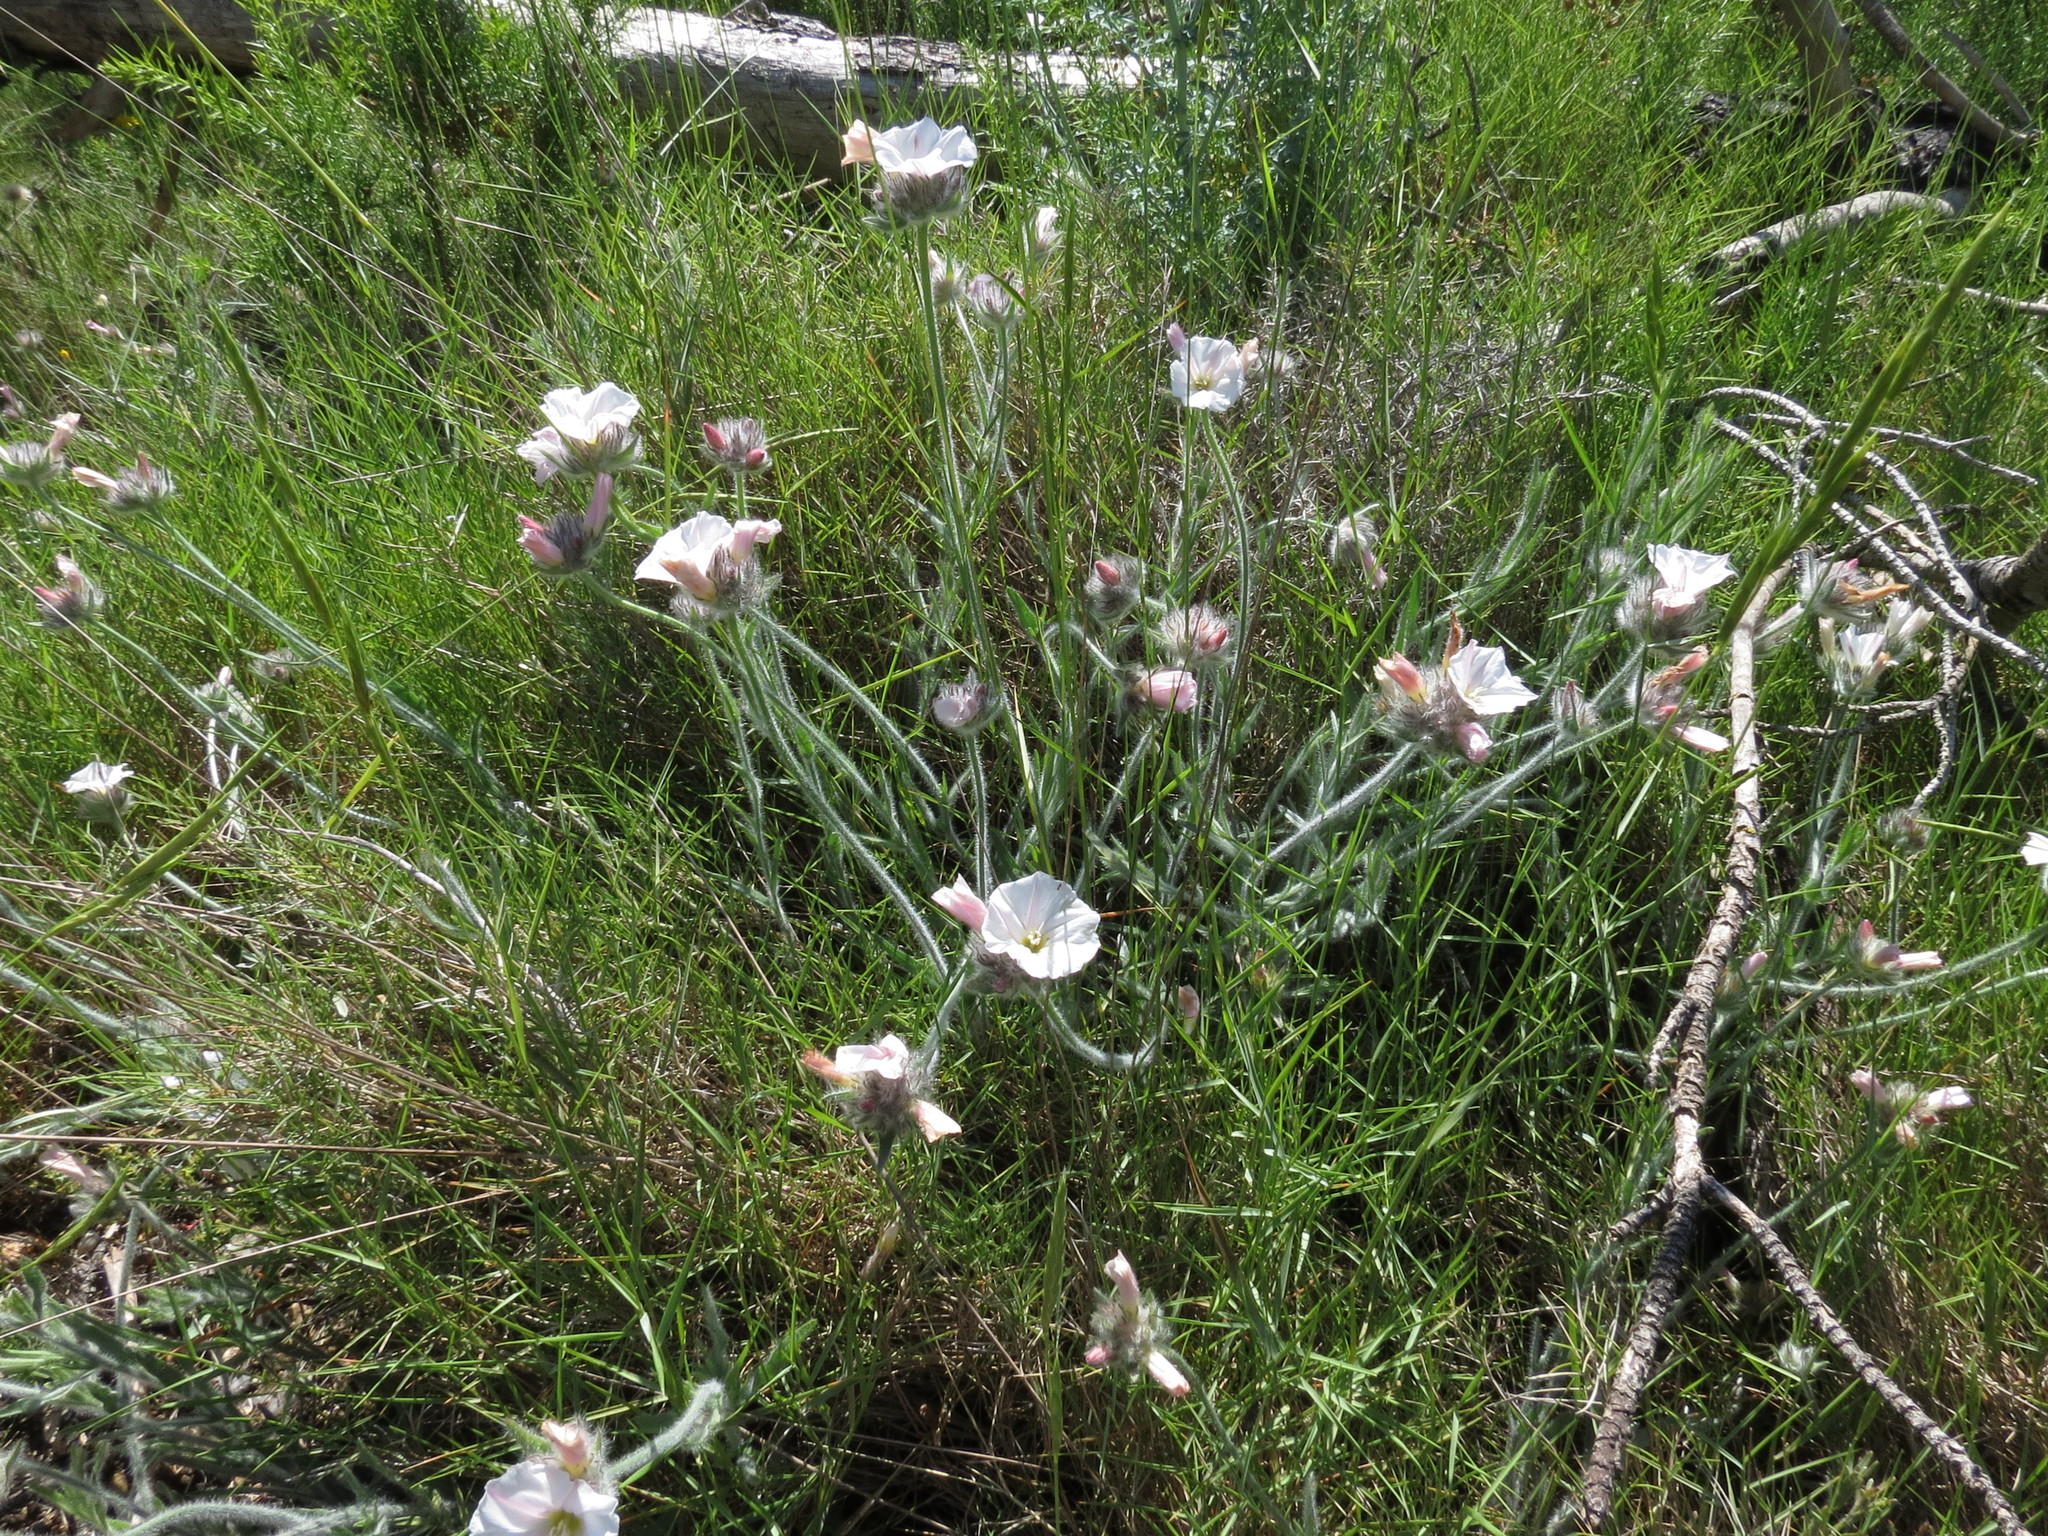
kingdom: Plantae
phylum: Tracheophyta
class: Magnoliopsida
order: Solanales
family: Convolvulaceae
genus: Convolvulus
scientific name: Convolvulus lanuginosus
